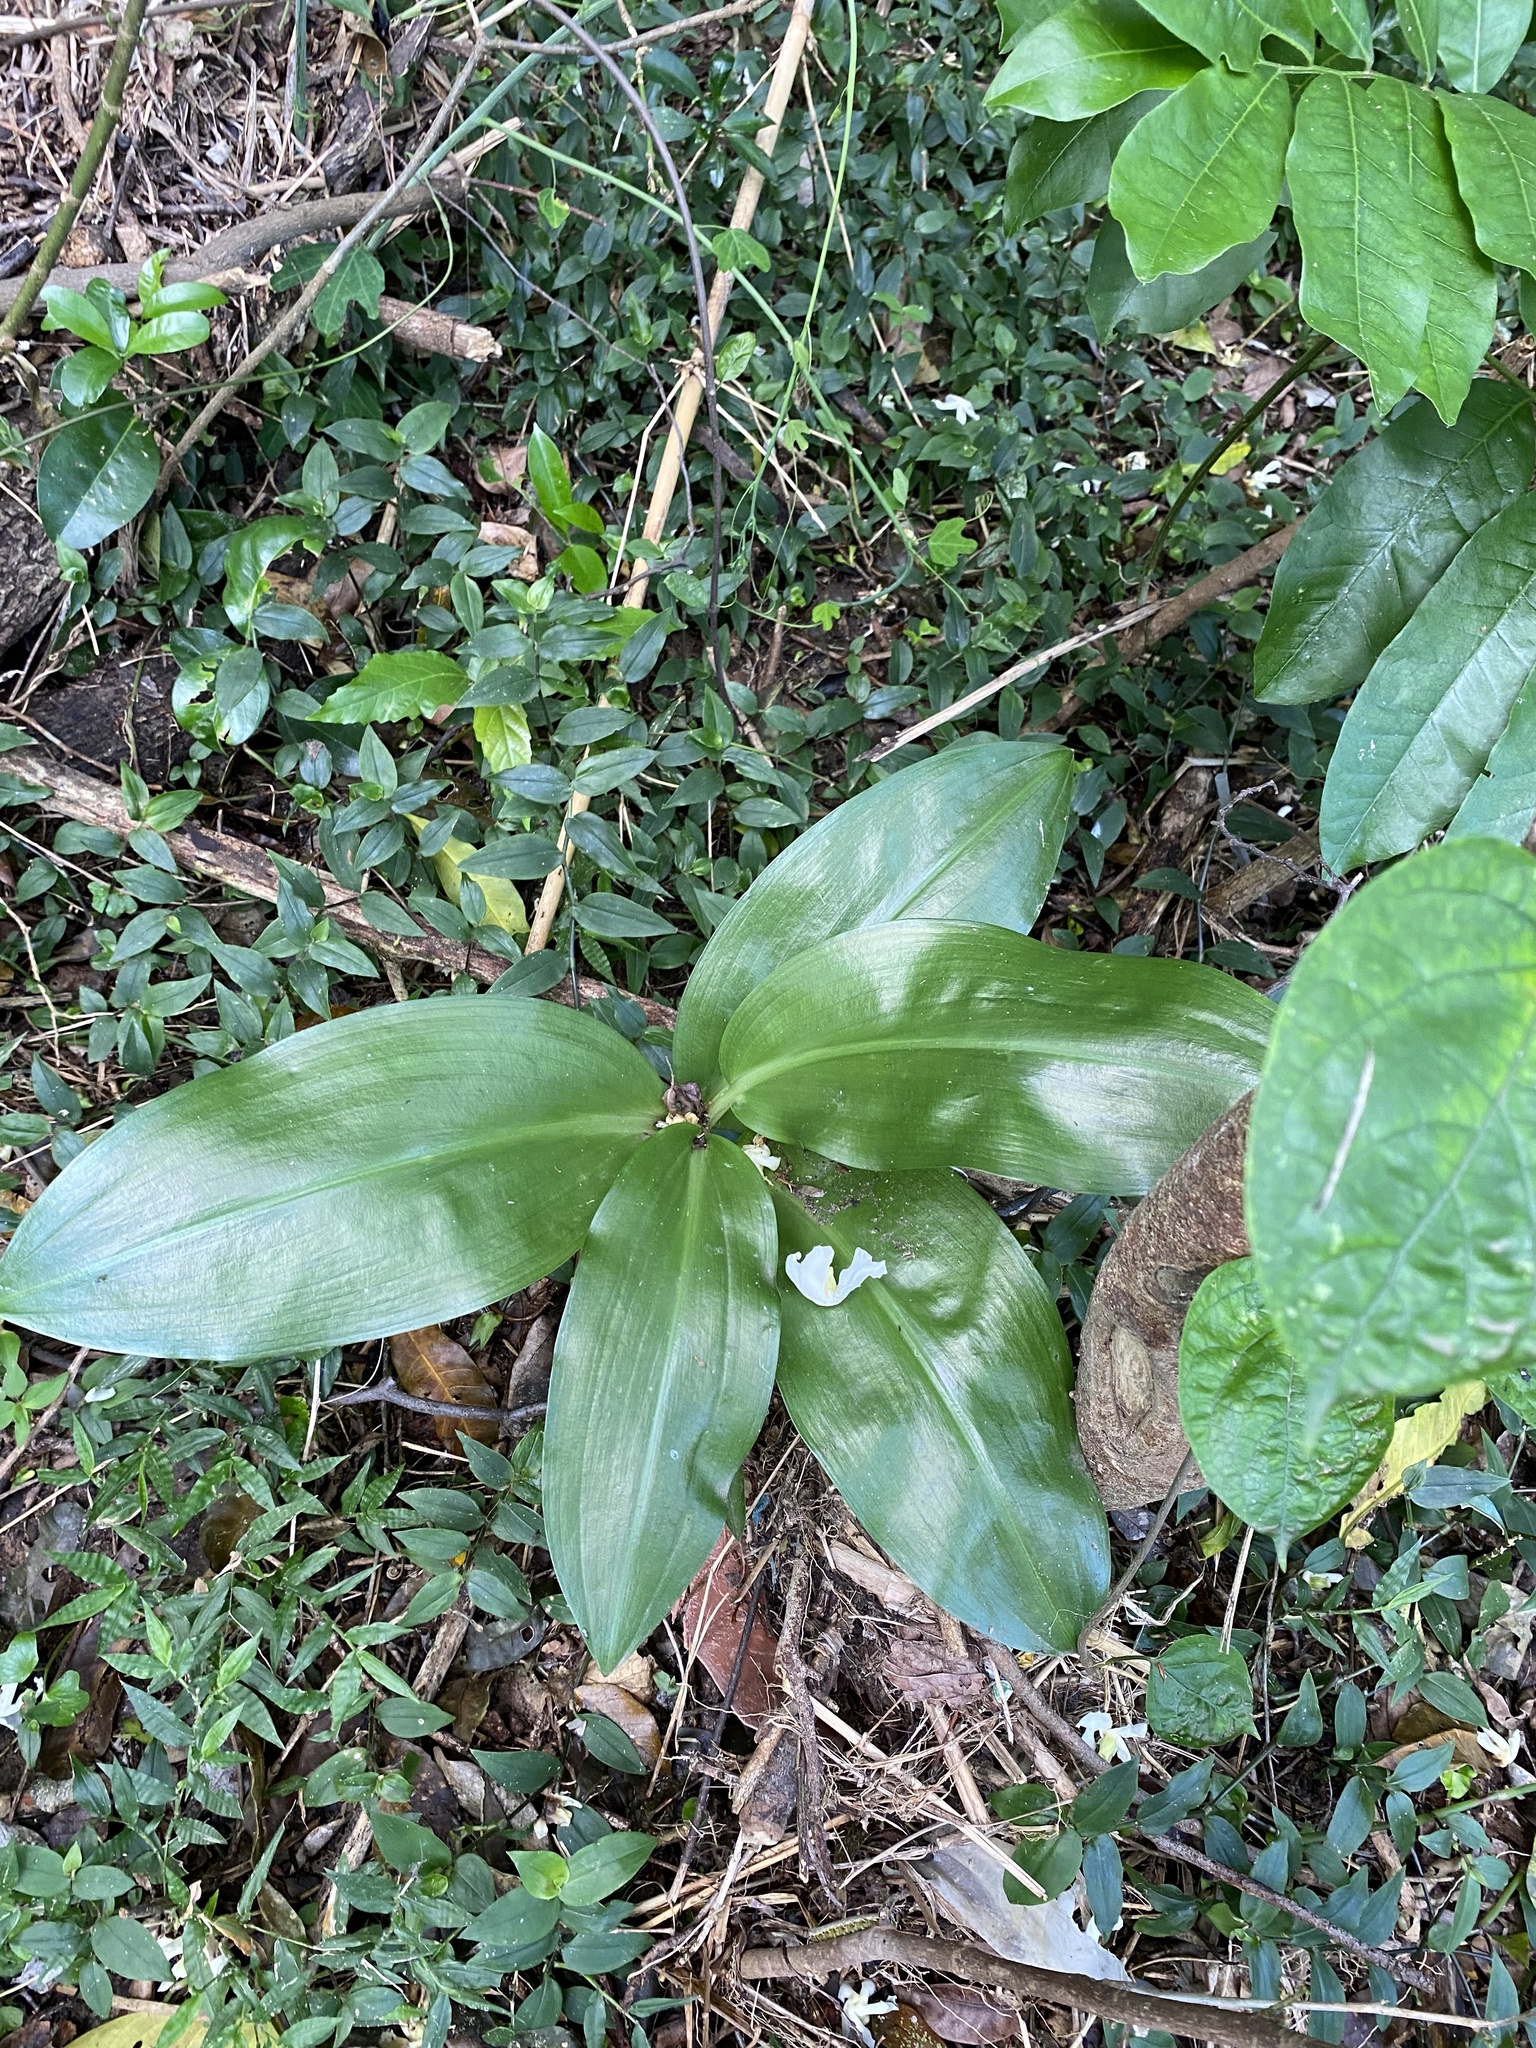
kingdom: Plantae
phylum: Tracheophyta
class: Liliopsida
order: Asparagales
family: Amaryllidaceae
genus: Scadoxus
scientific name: Scadoxus puniceus
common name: Royal-paintbrush
